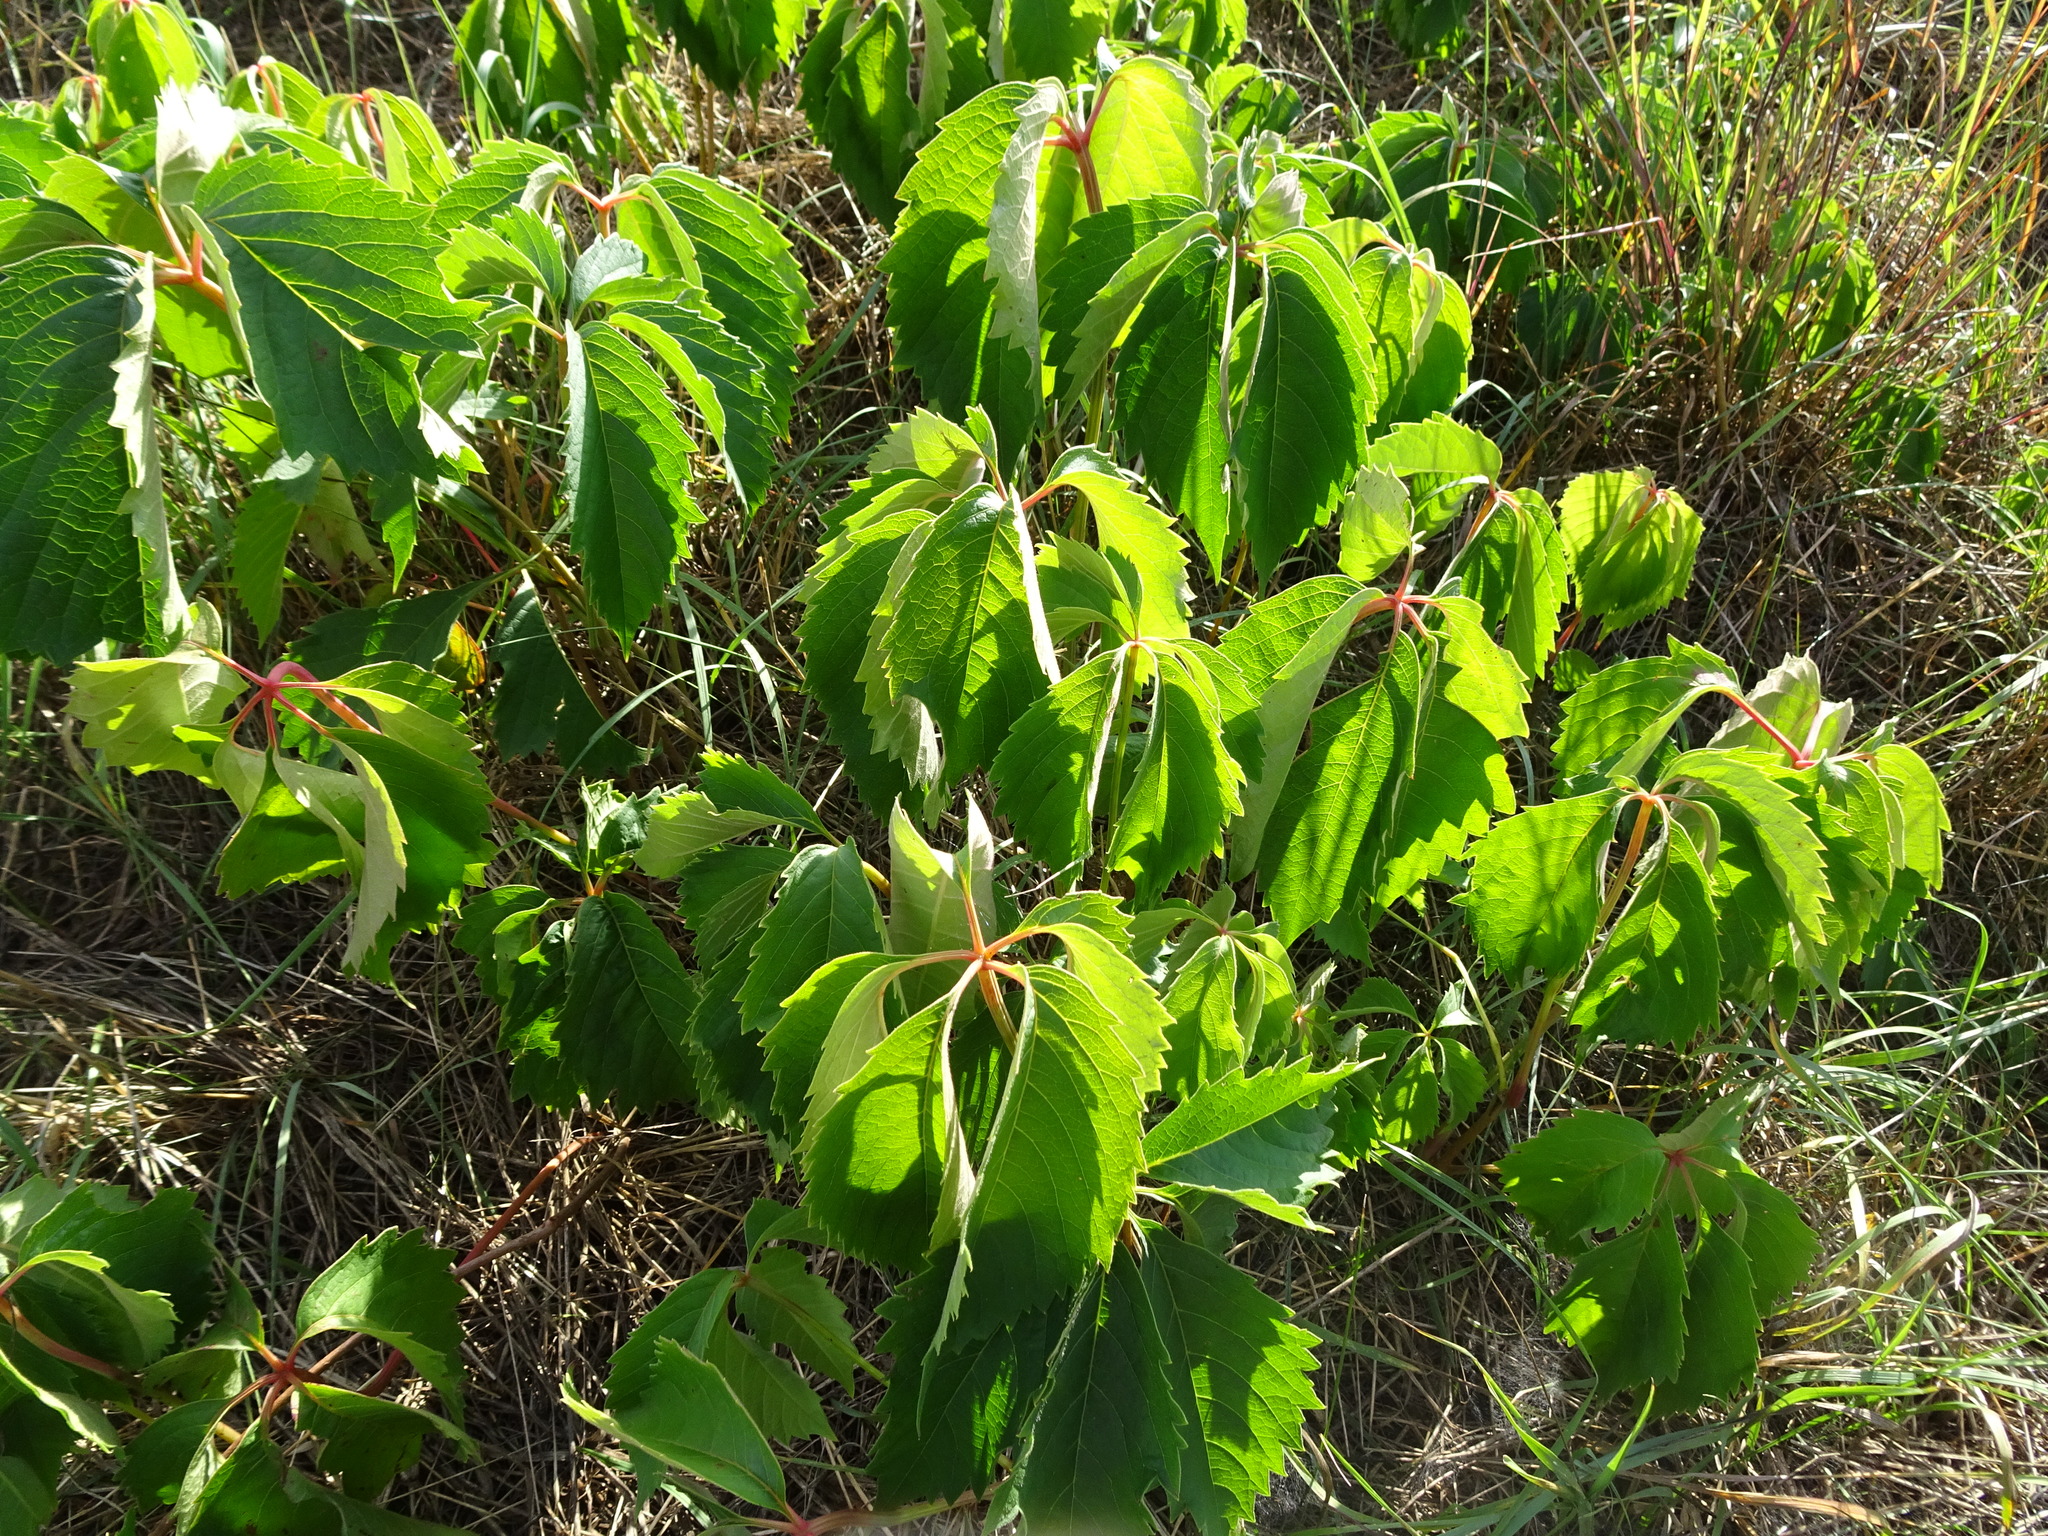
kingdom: Plantae
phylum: Tracheophyta
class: Magnoliopsida
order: Vitales
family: Vitaceae
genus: Parthenocissus
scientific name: Parthenocissus quinquefolia
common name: Virginia-creeper
